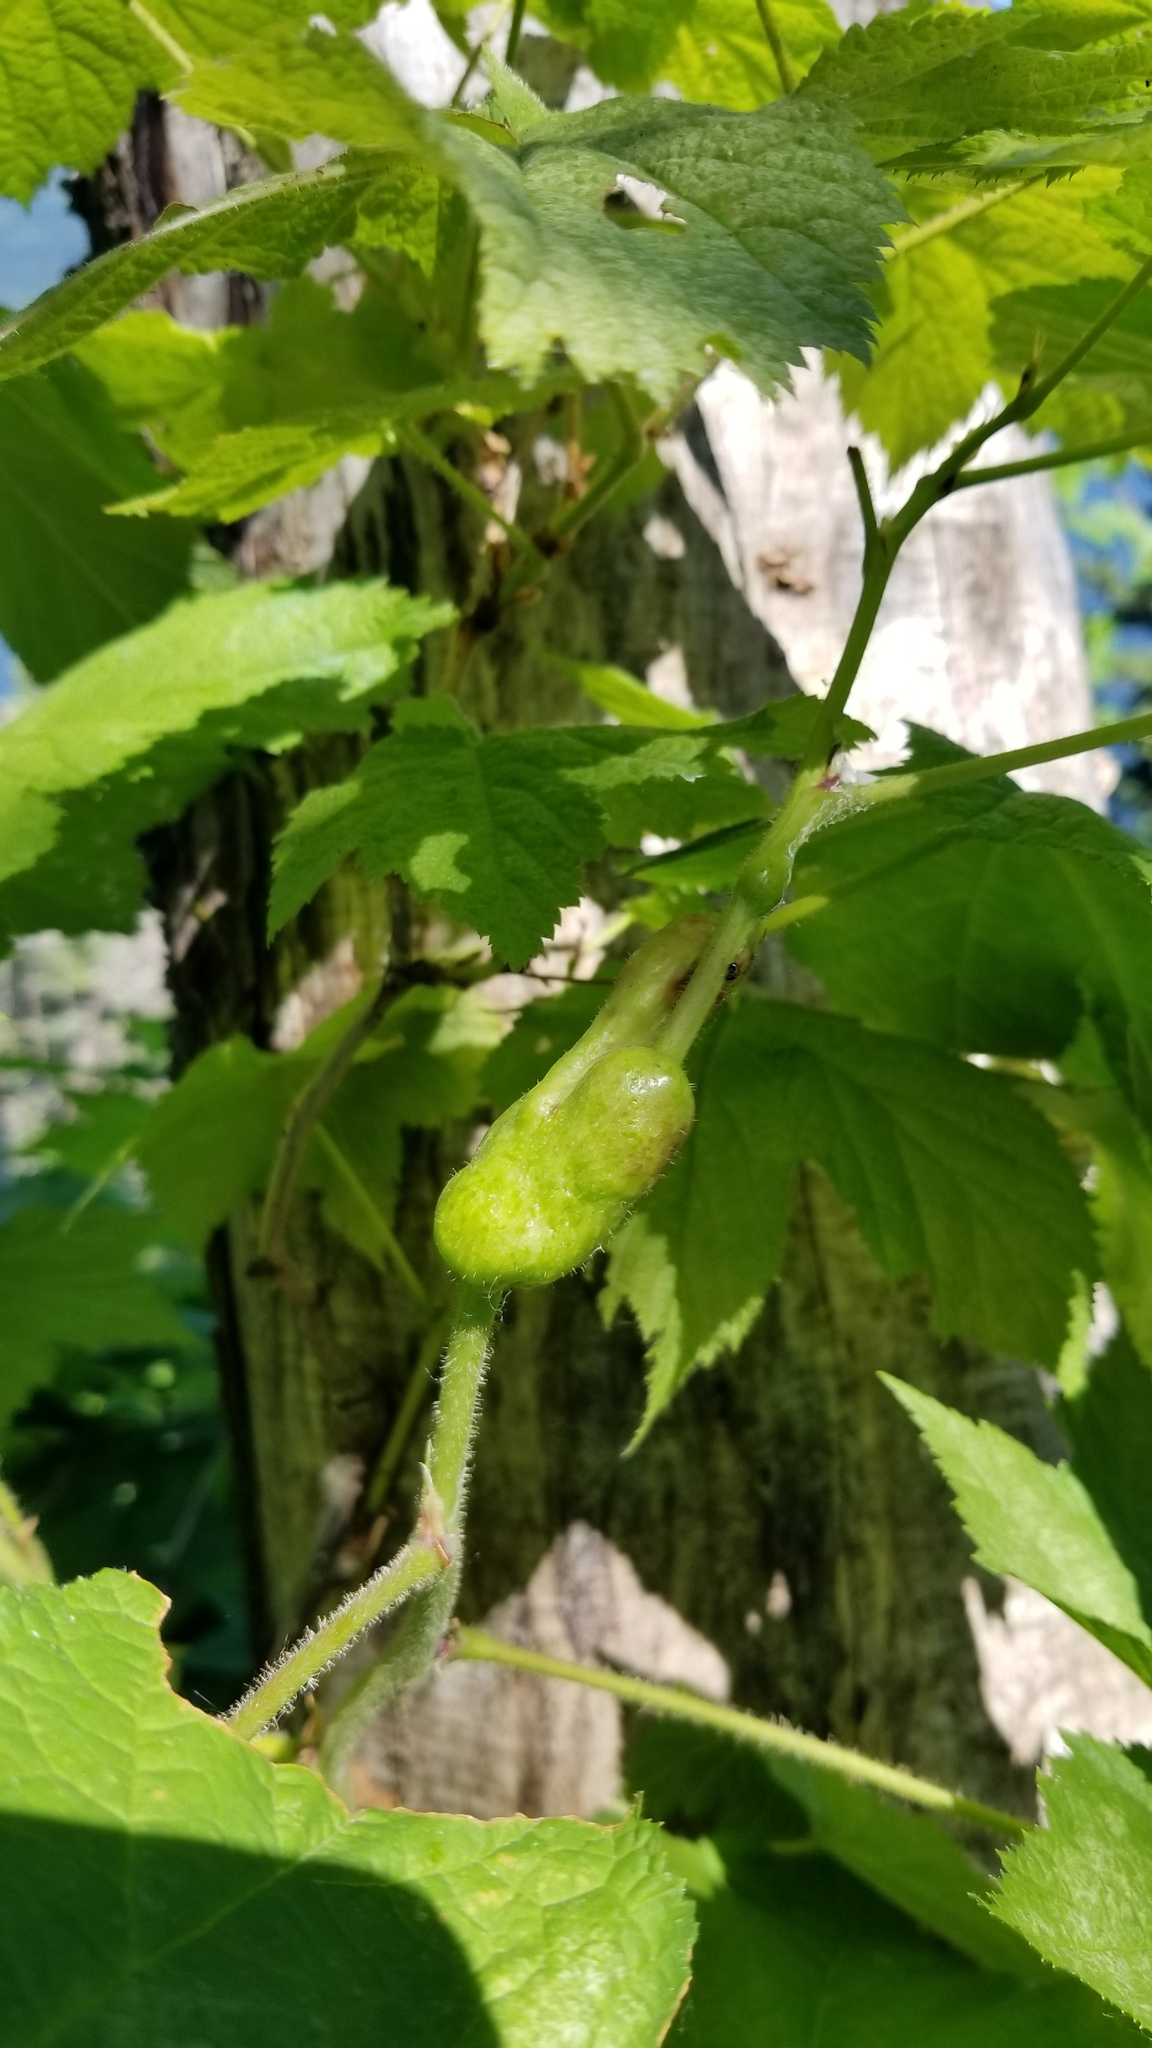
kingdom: Animalia
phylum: Arthropoda
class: Insecta
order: Hymenoptera
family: Cynipidae
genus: Diastrophus
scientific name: Diastrophus
